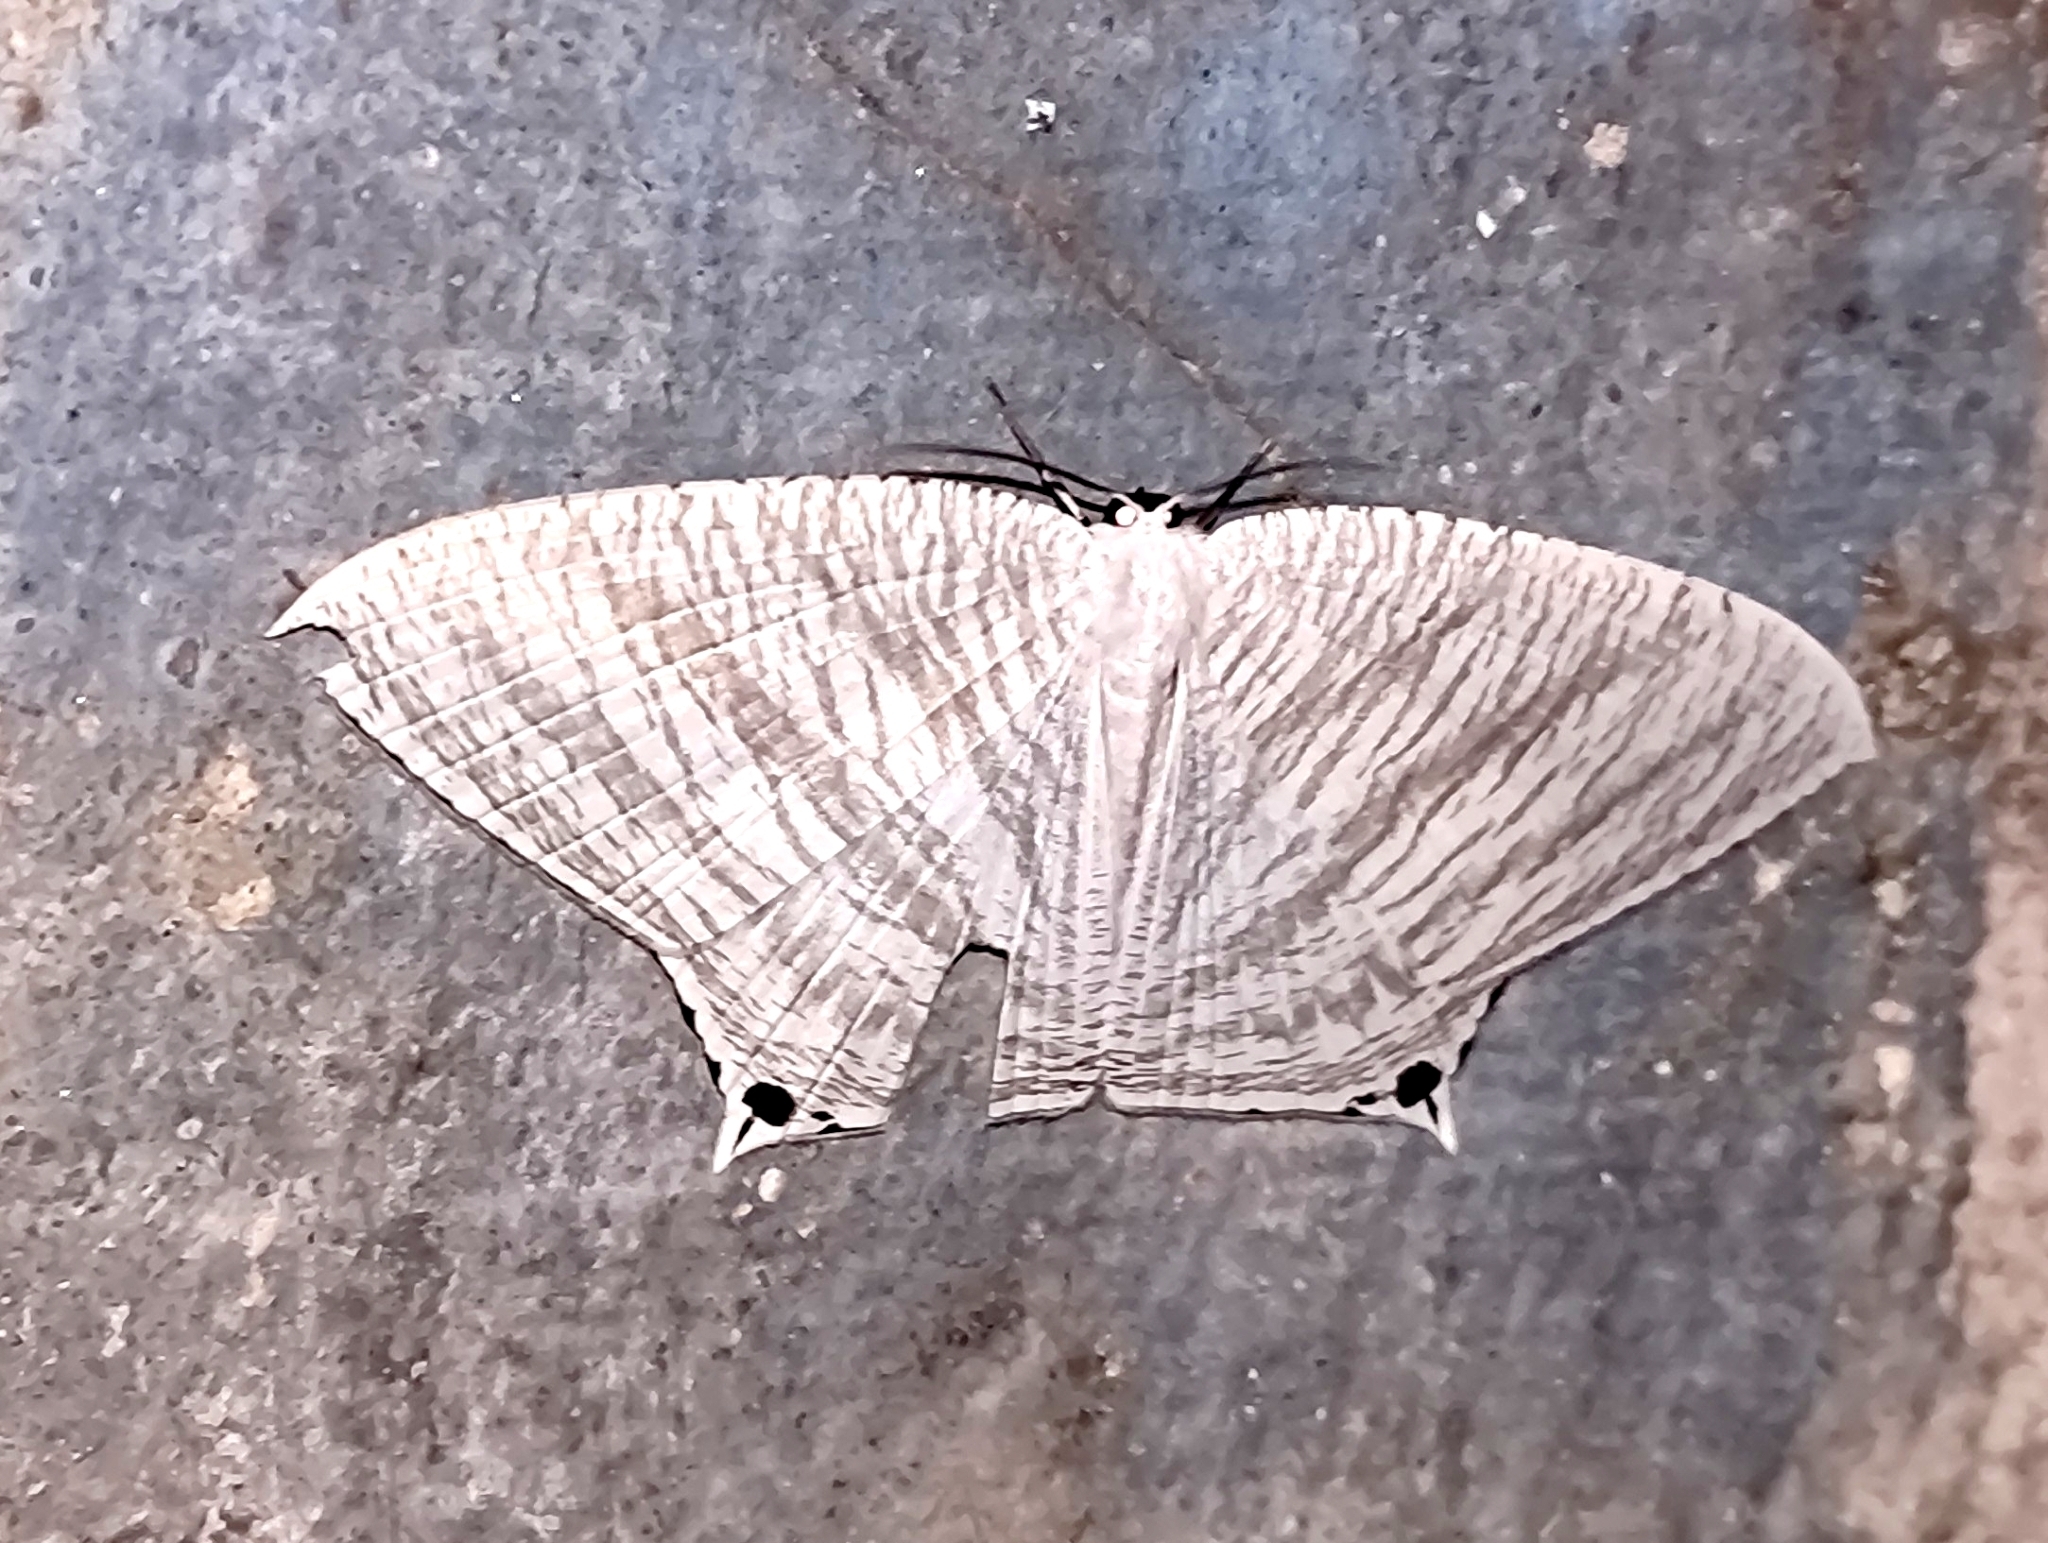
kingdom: Animalia
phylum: Arthropoda
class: Insecta
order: Lepidoptera
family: Uraniidae
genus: Micronia
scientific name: Micronia aculeata
